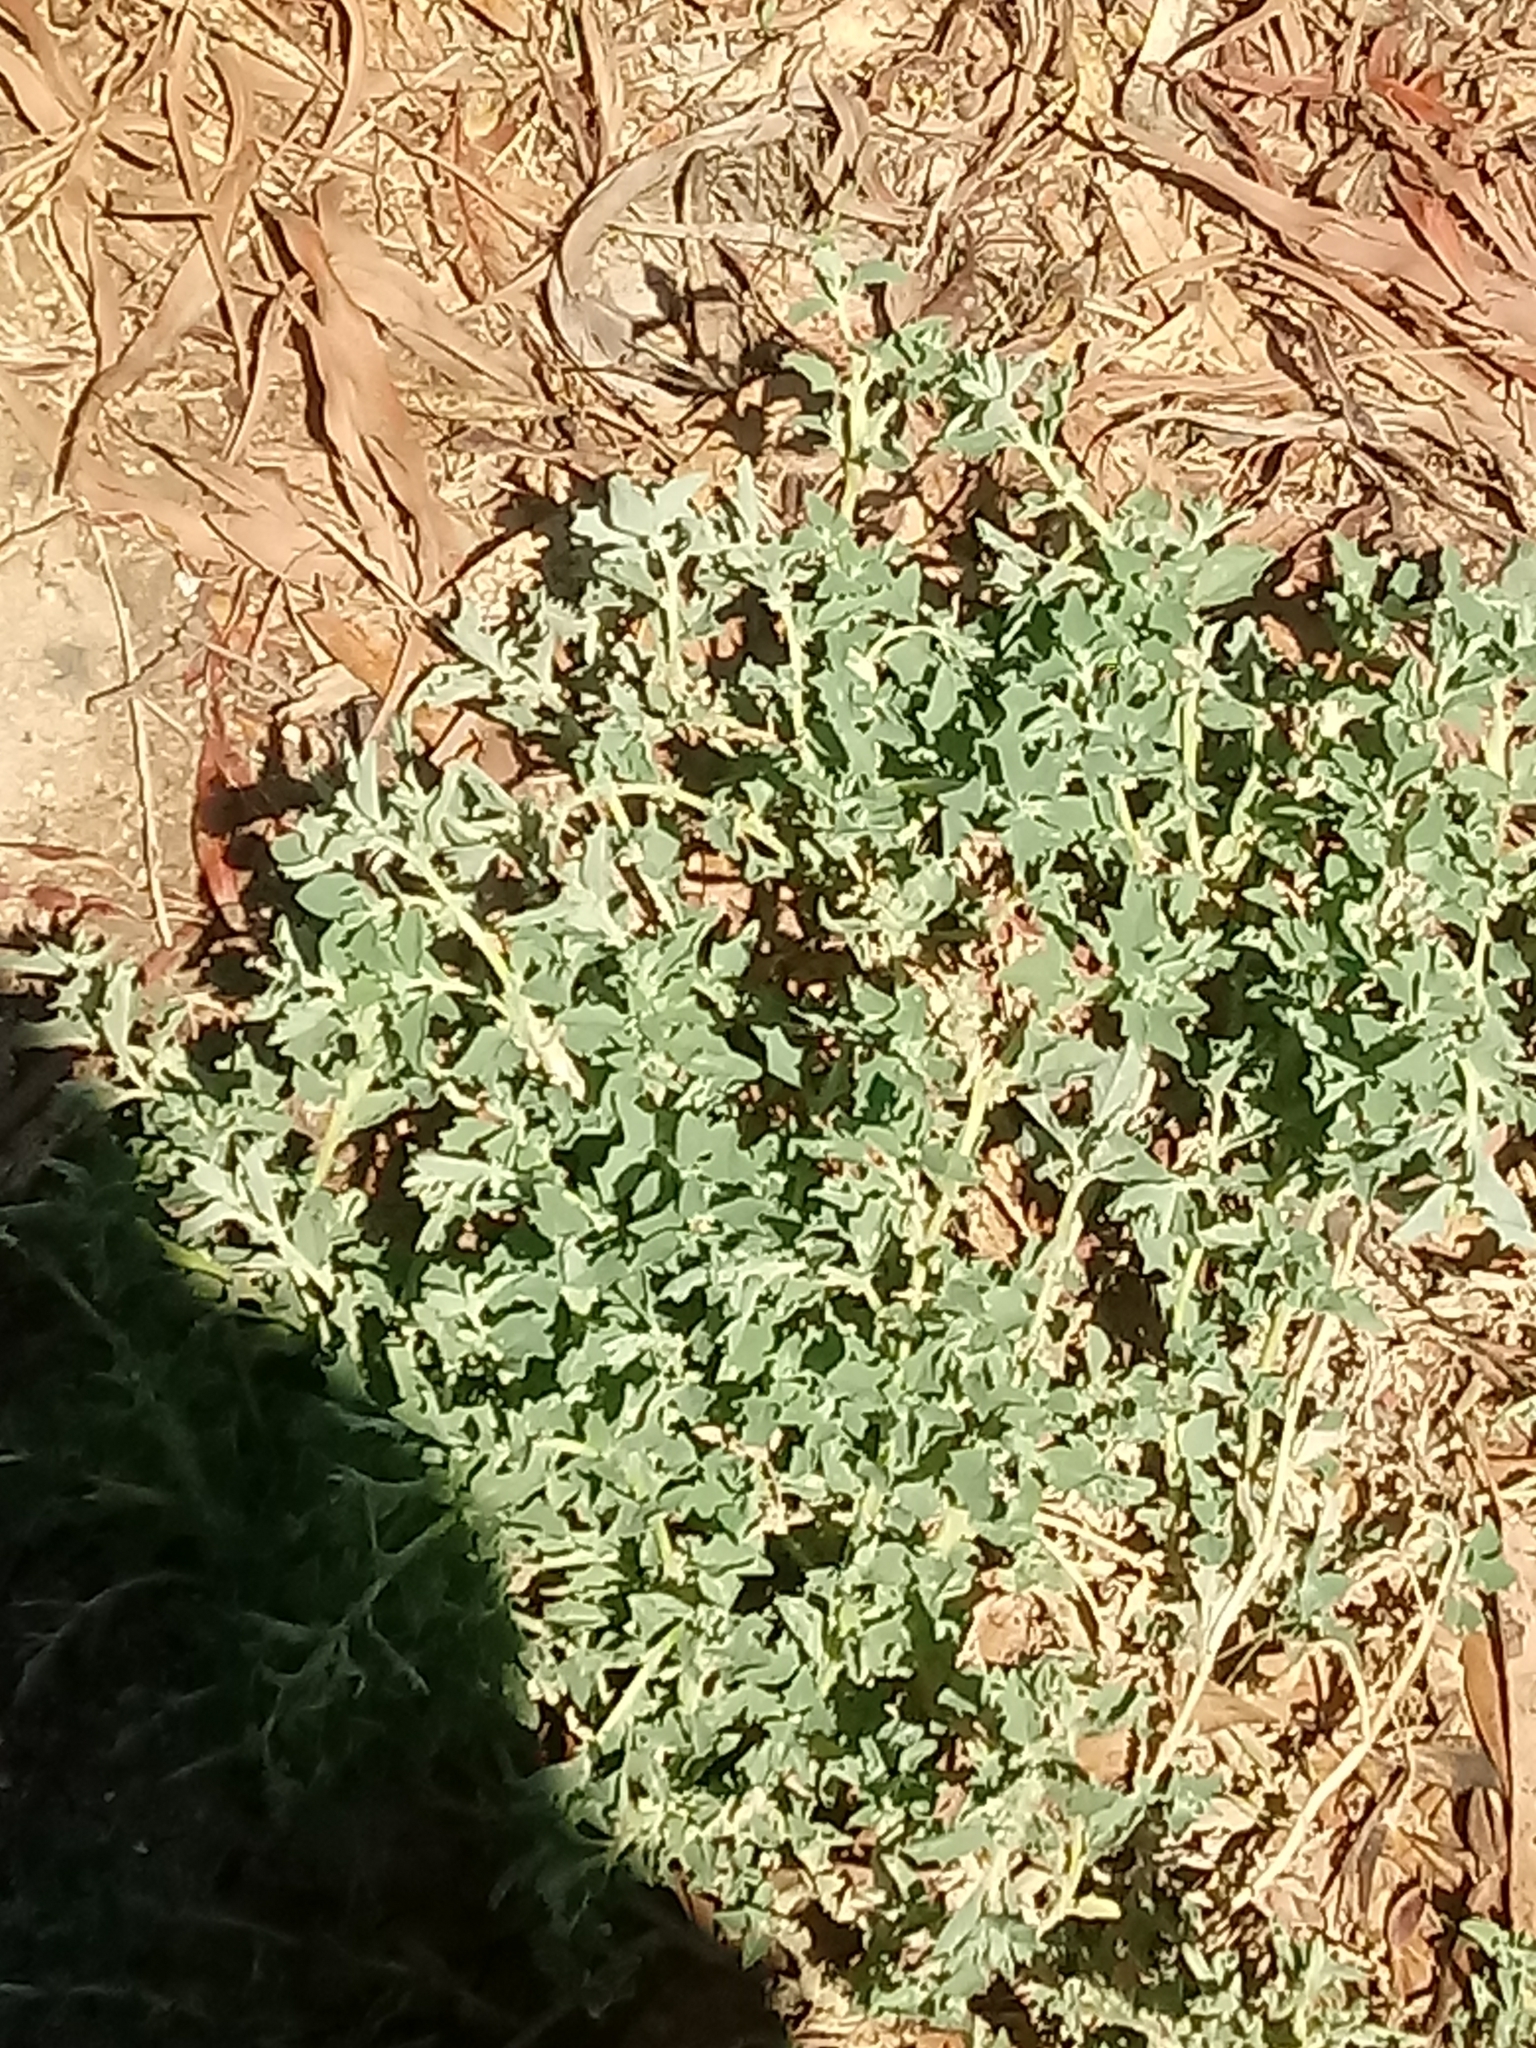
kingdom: Plantae
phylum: Tracheophyta
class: Magnoliopsida
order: Caryophyllales
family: Amaranthaceae
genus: Atriplex
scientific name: Atriplex semibaccata
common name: Australian saltbush
